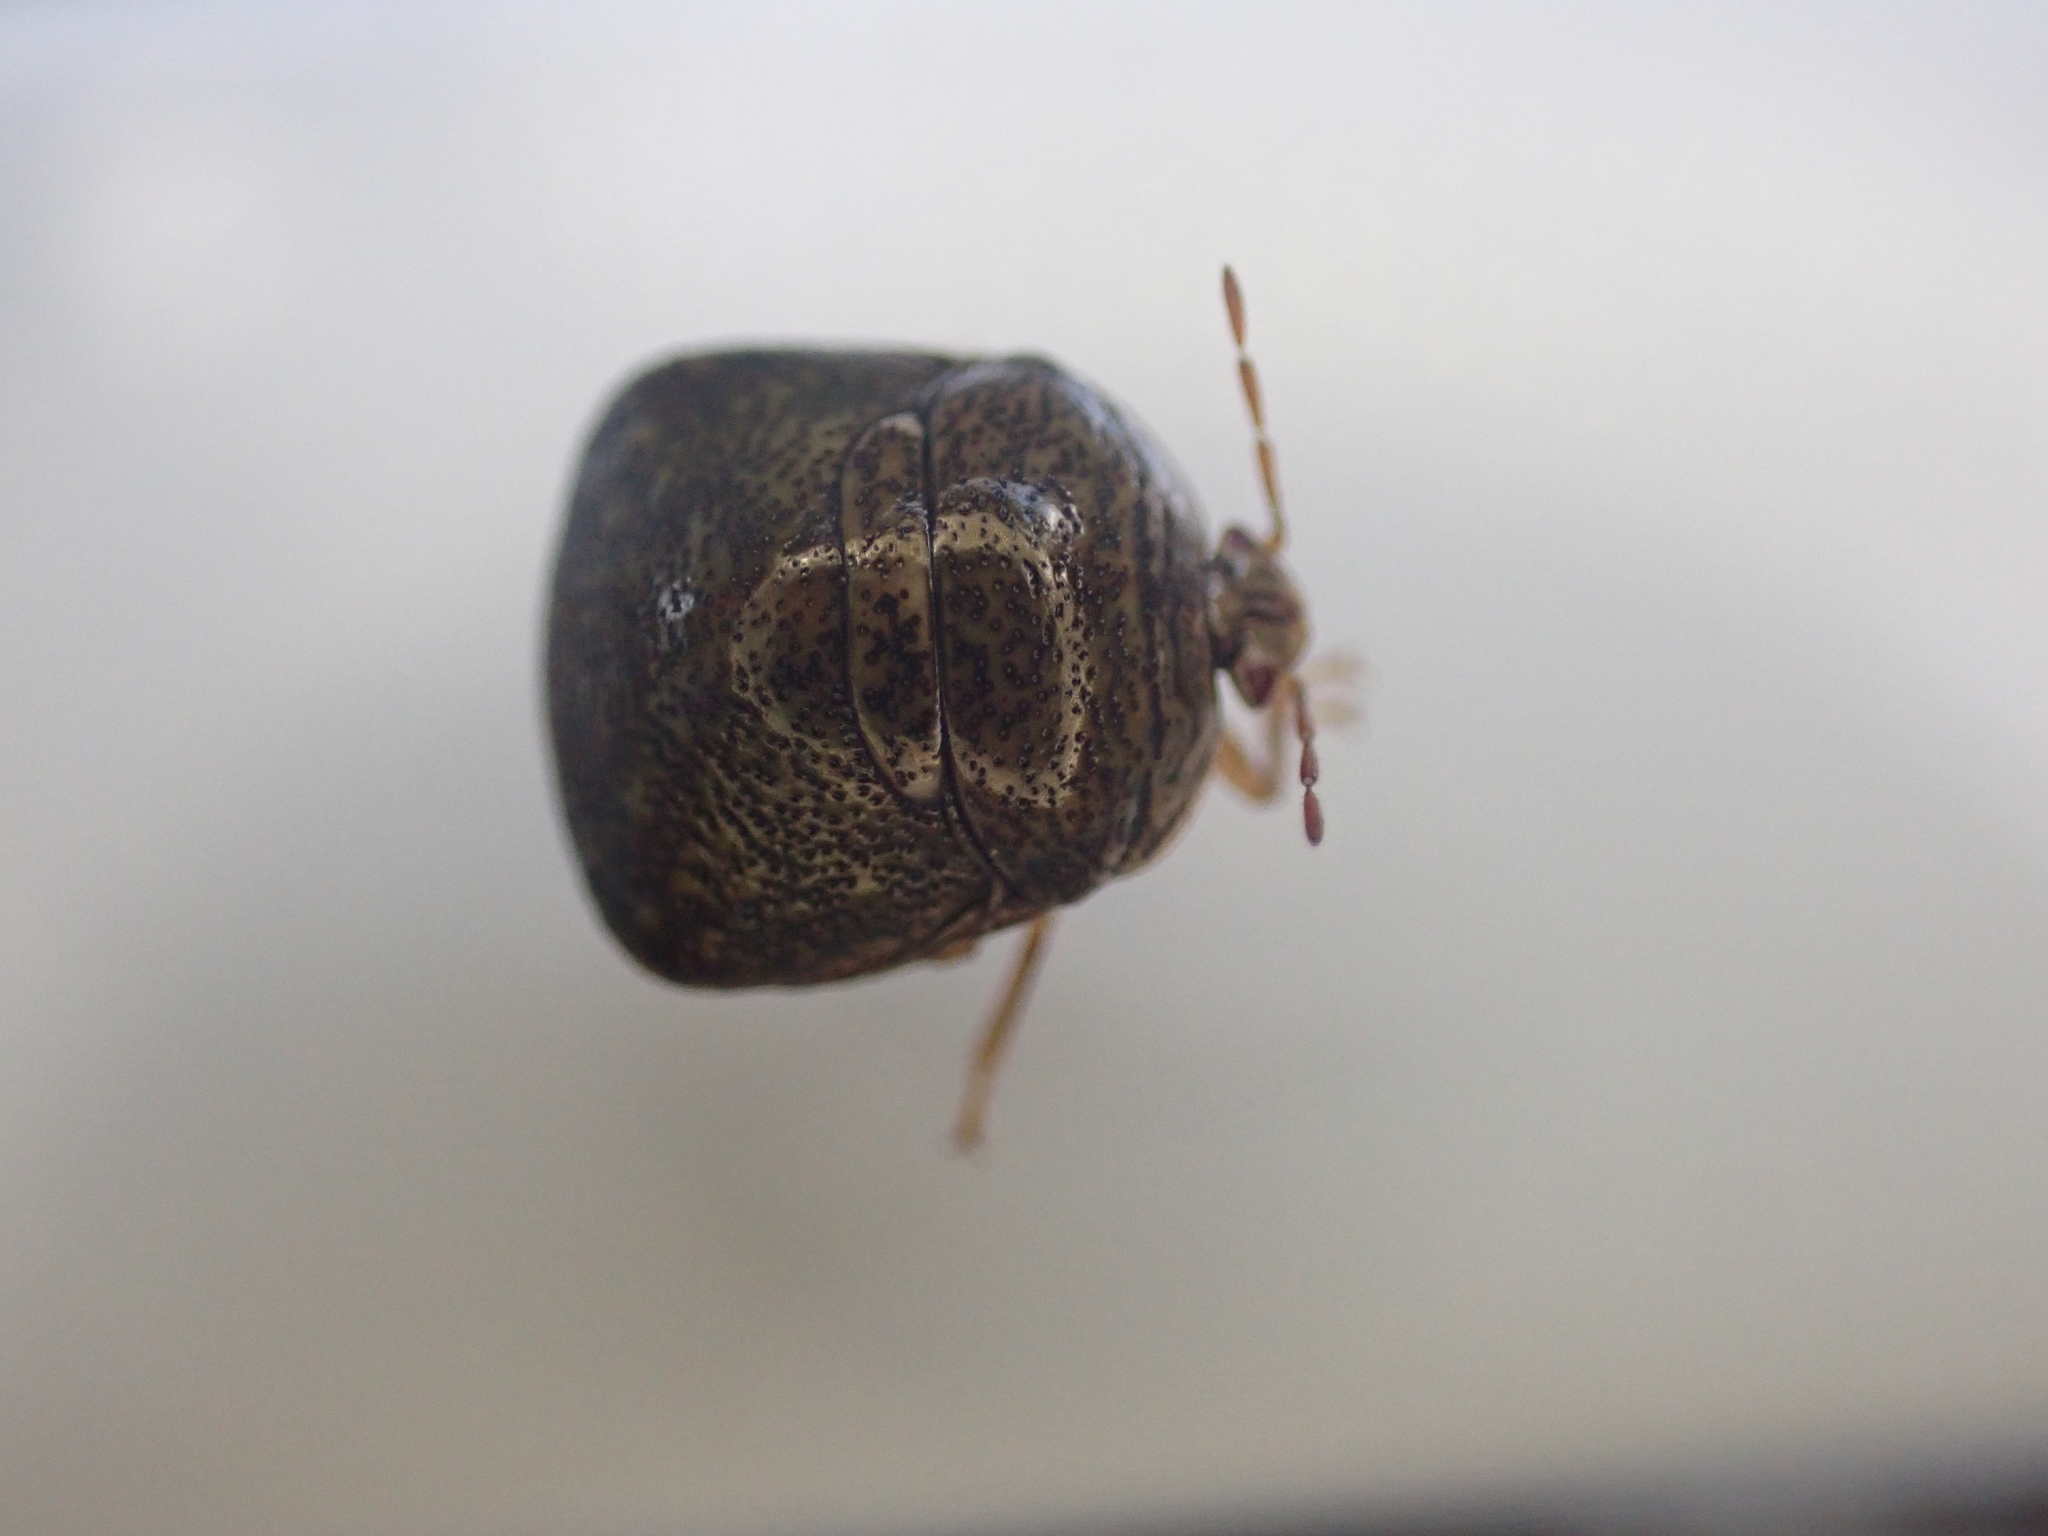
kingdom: Animalia
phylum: Arthropoda
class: Insecta
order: Hemiptera
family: Plataspidae
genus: Megacopta
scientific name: Megacopta cribraria
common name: Bean plataspid
